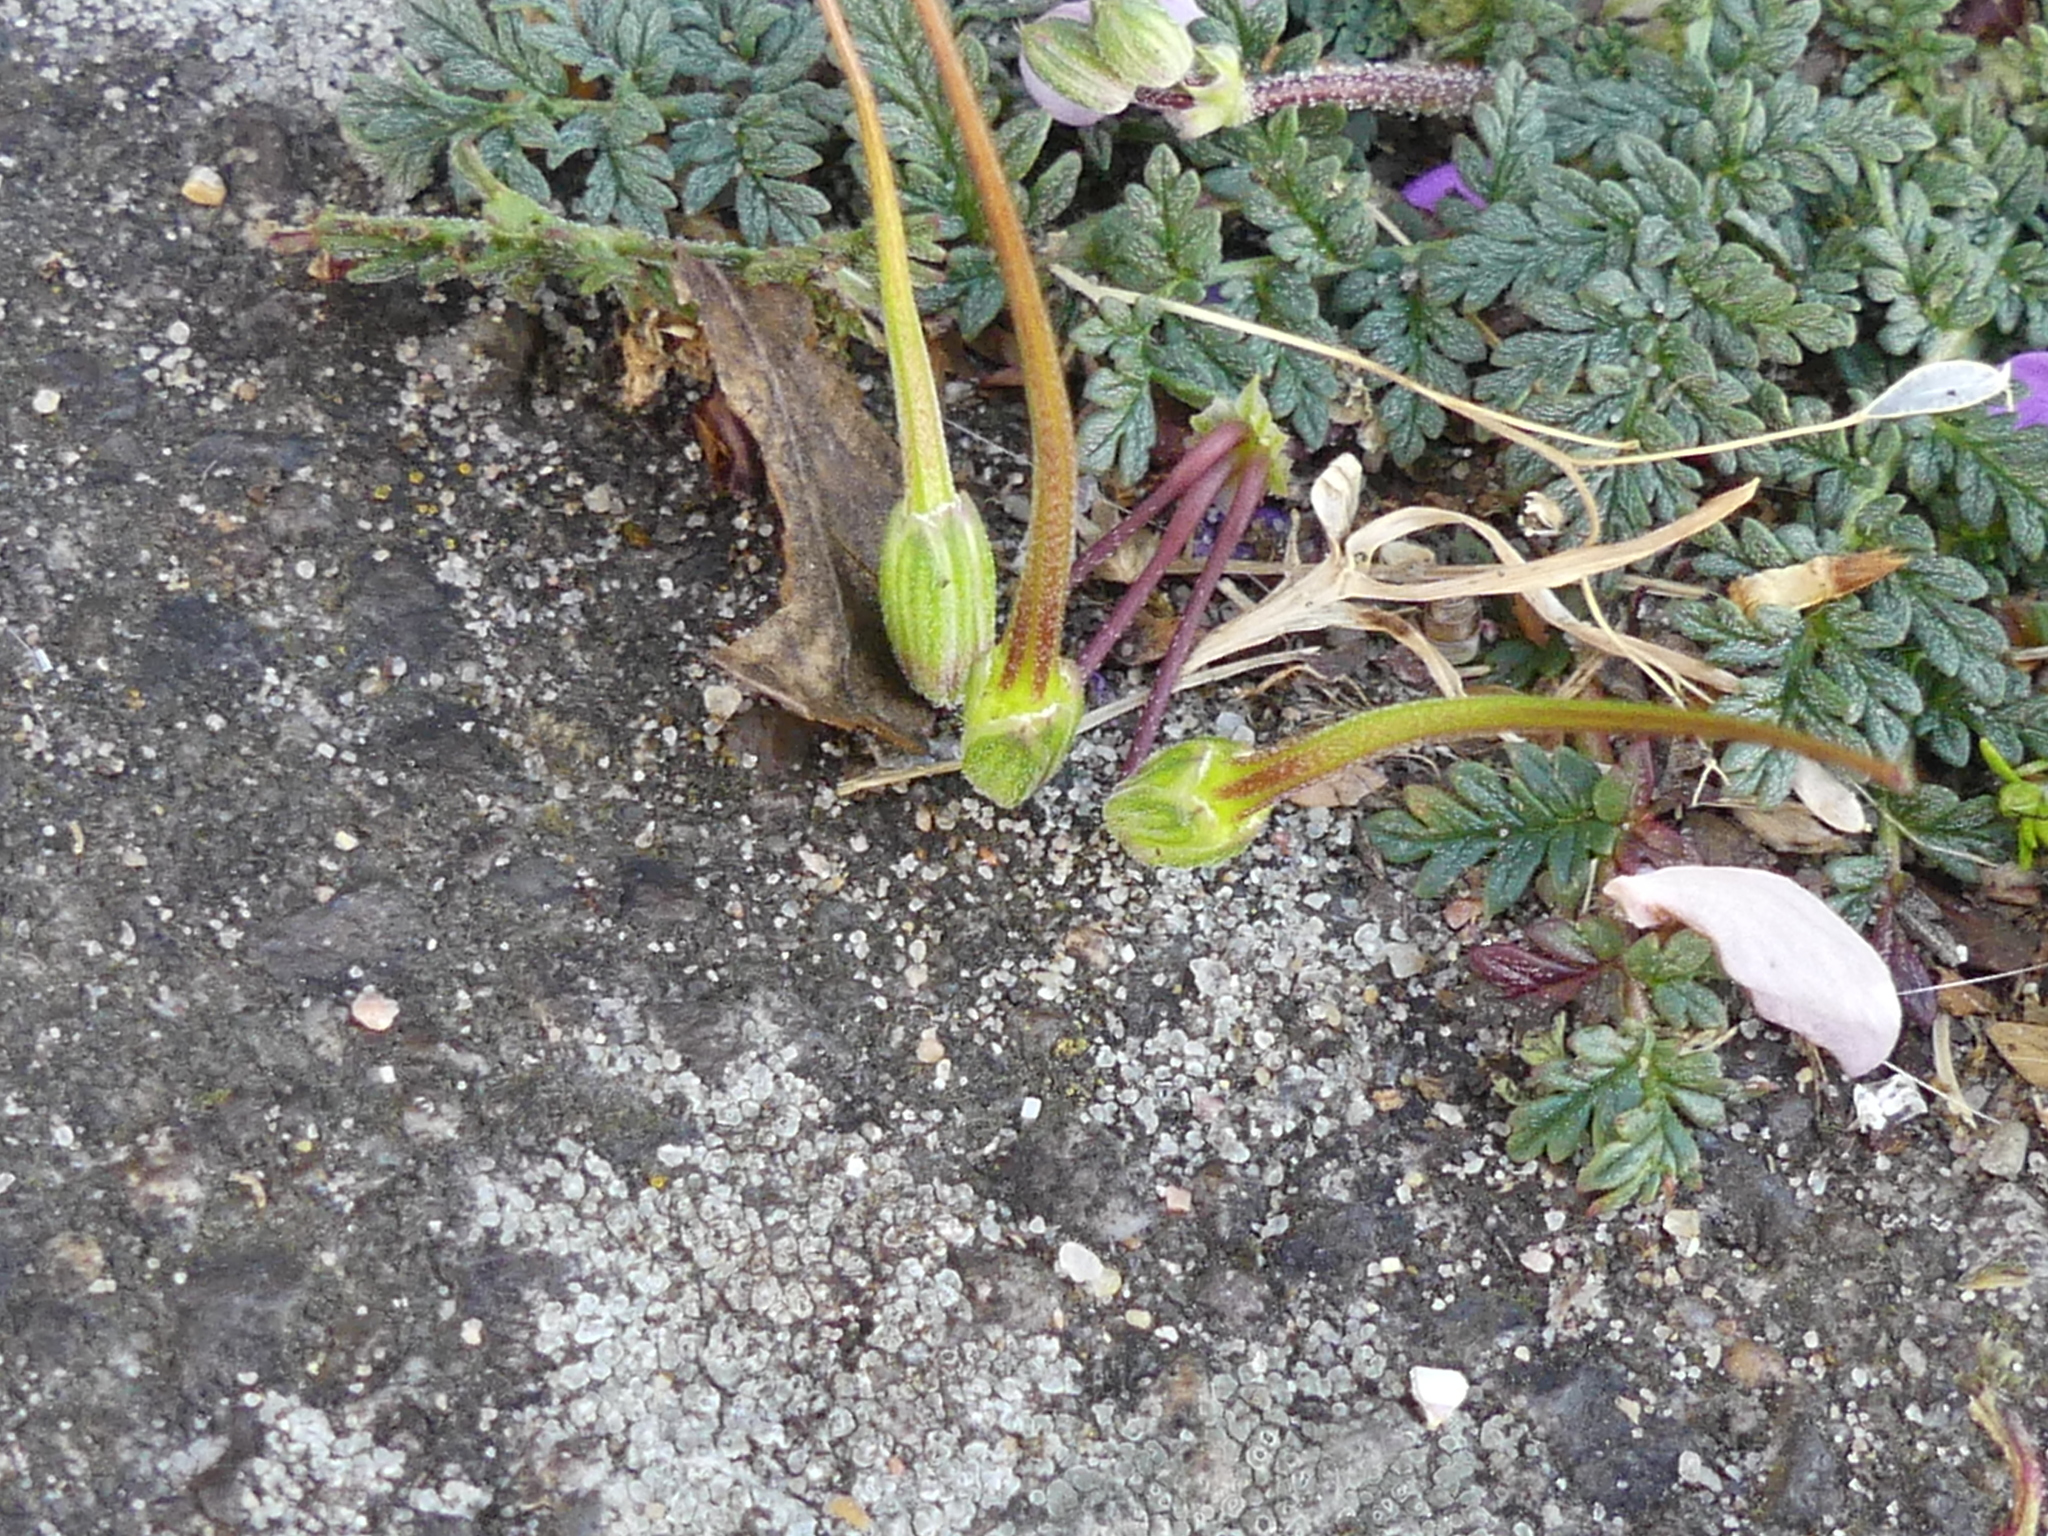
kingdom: Plantae
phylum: Tracheophyta
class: Magnoliopsida
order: Geraniales
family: Geraniaceae
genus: Erodium
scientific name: Erodium cicutarium
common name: Common stork's-bill
